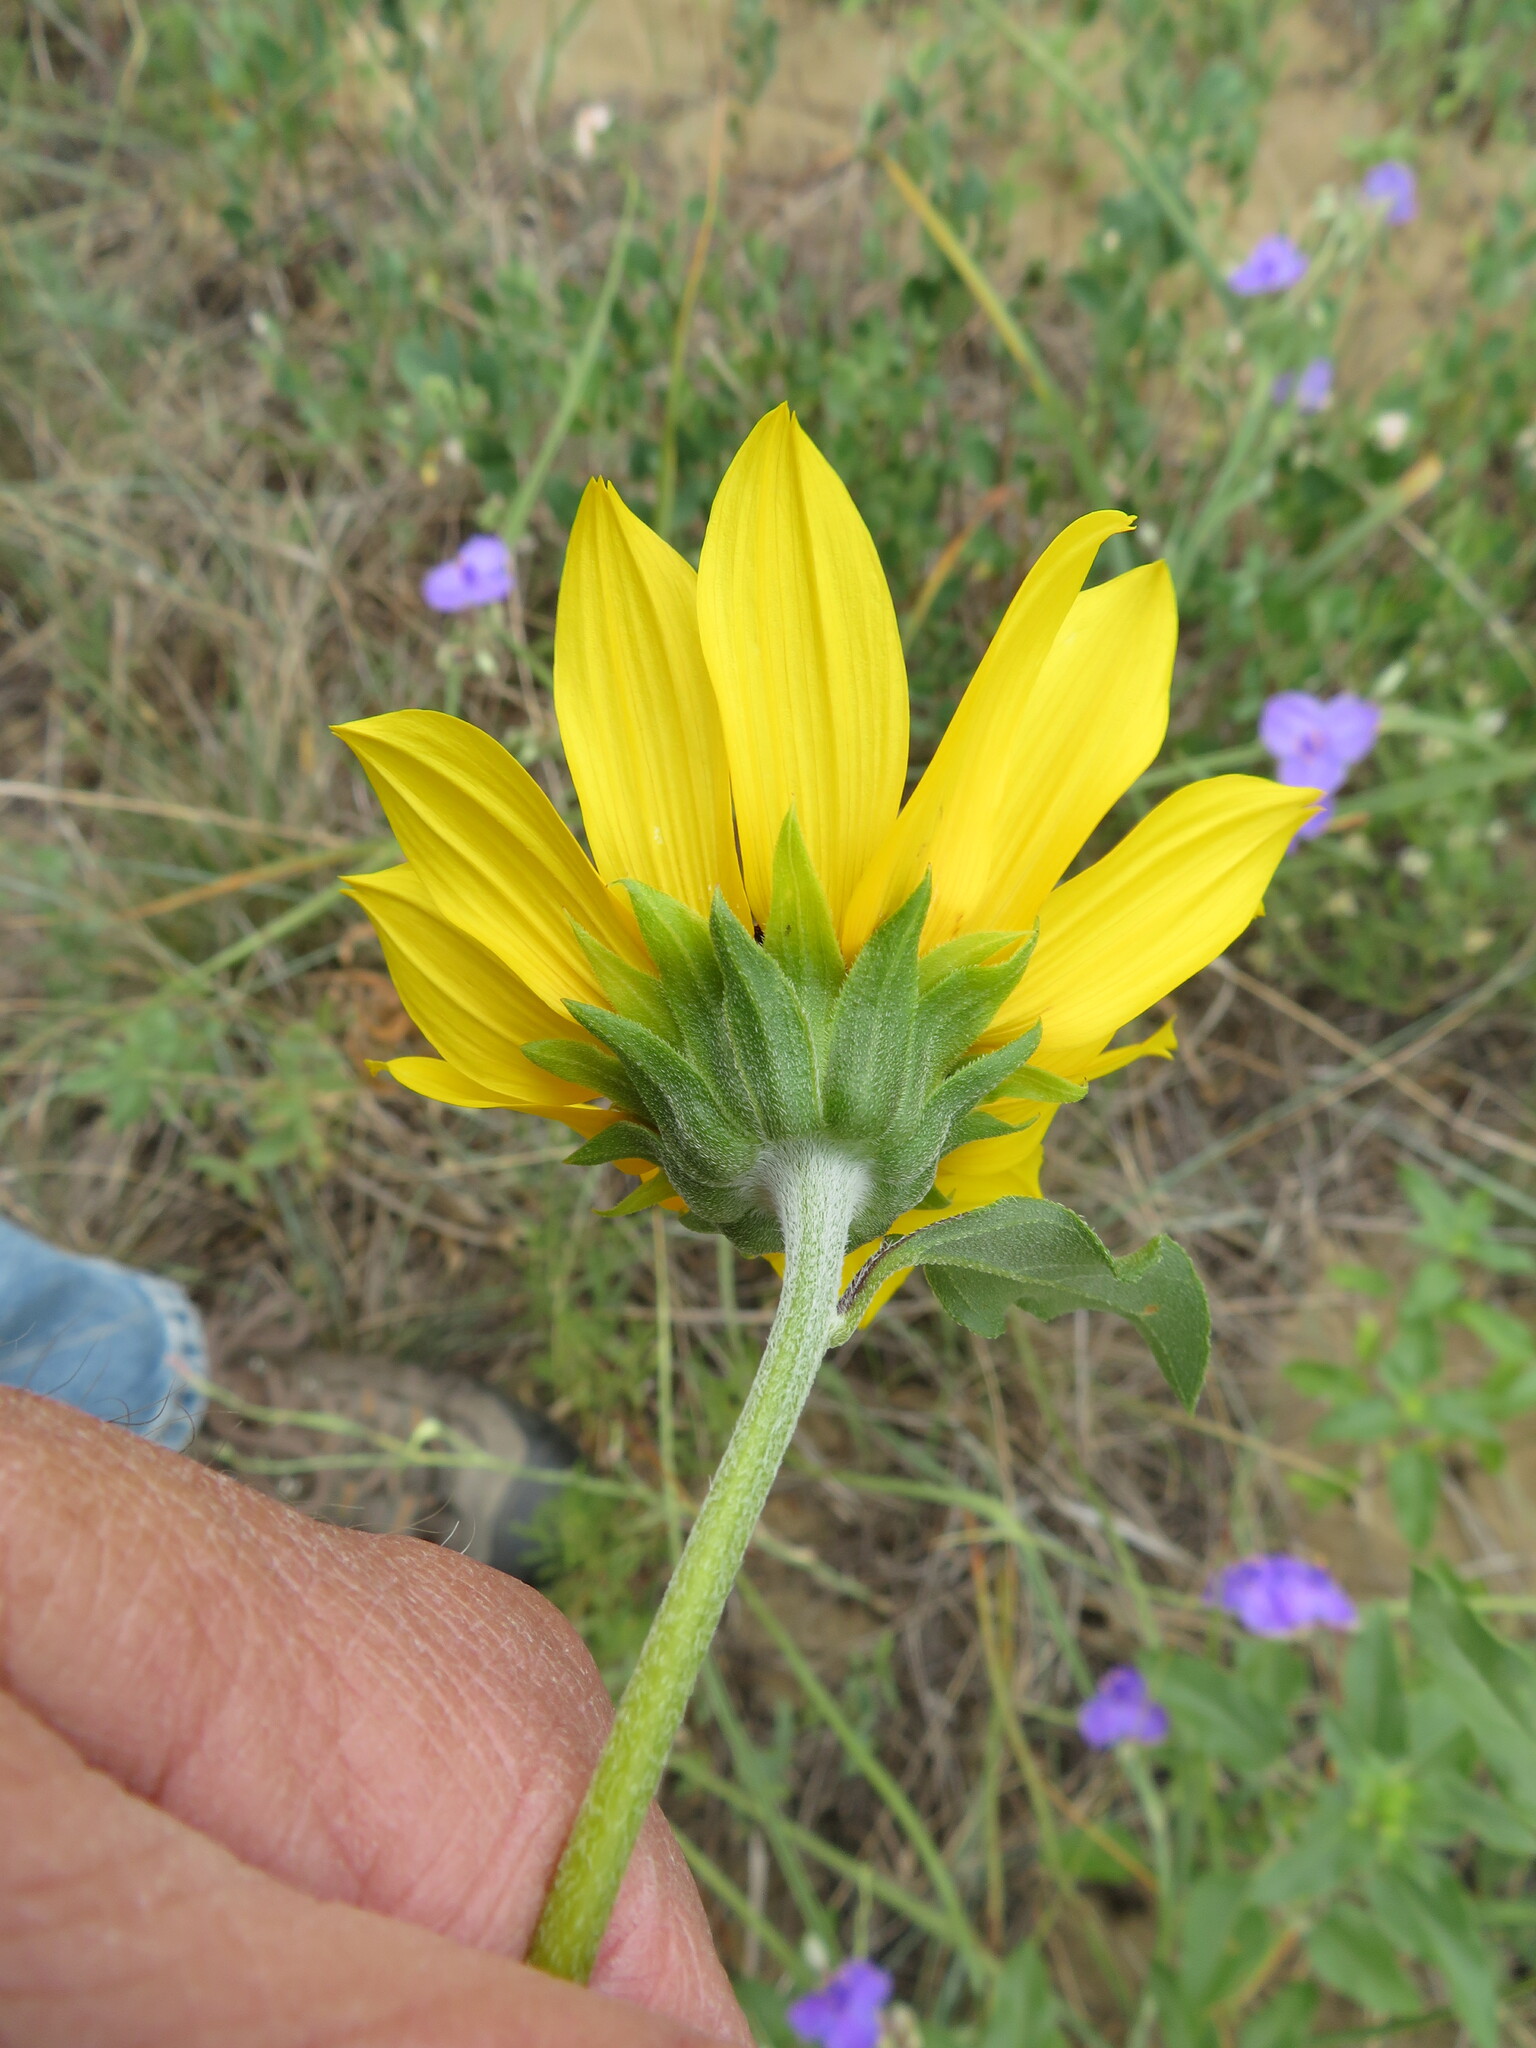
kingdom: Plantae
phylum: Tracheophyta
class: Magnoliopsida
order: Asterales
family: Asteraceae
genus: Helianthus
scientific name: Helianthus petiolaris
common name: Lesser sunflower
